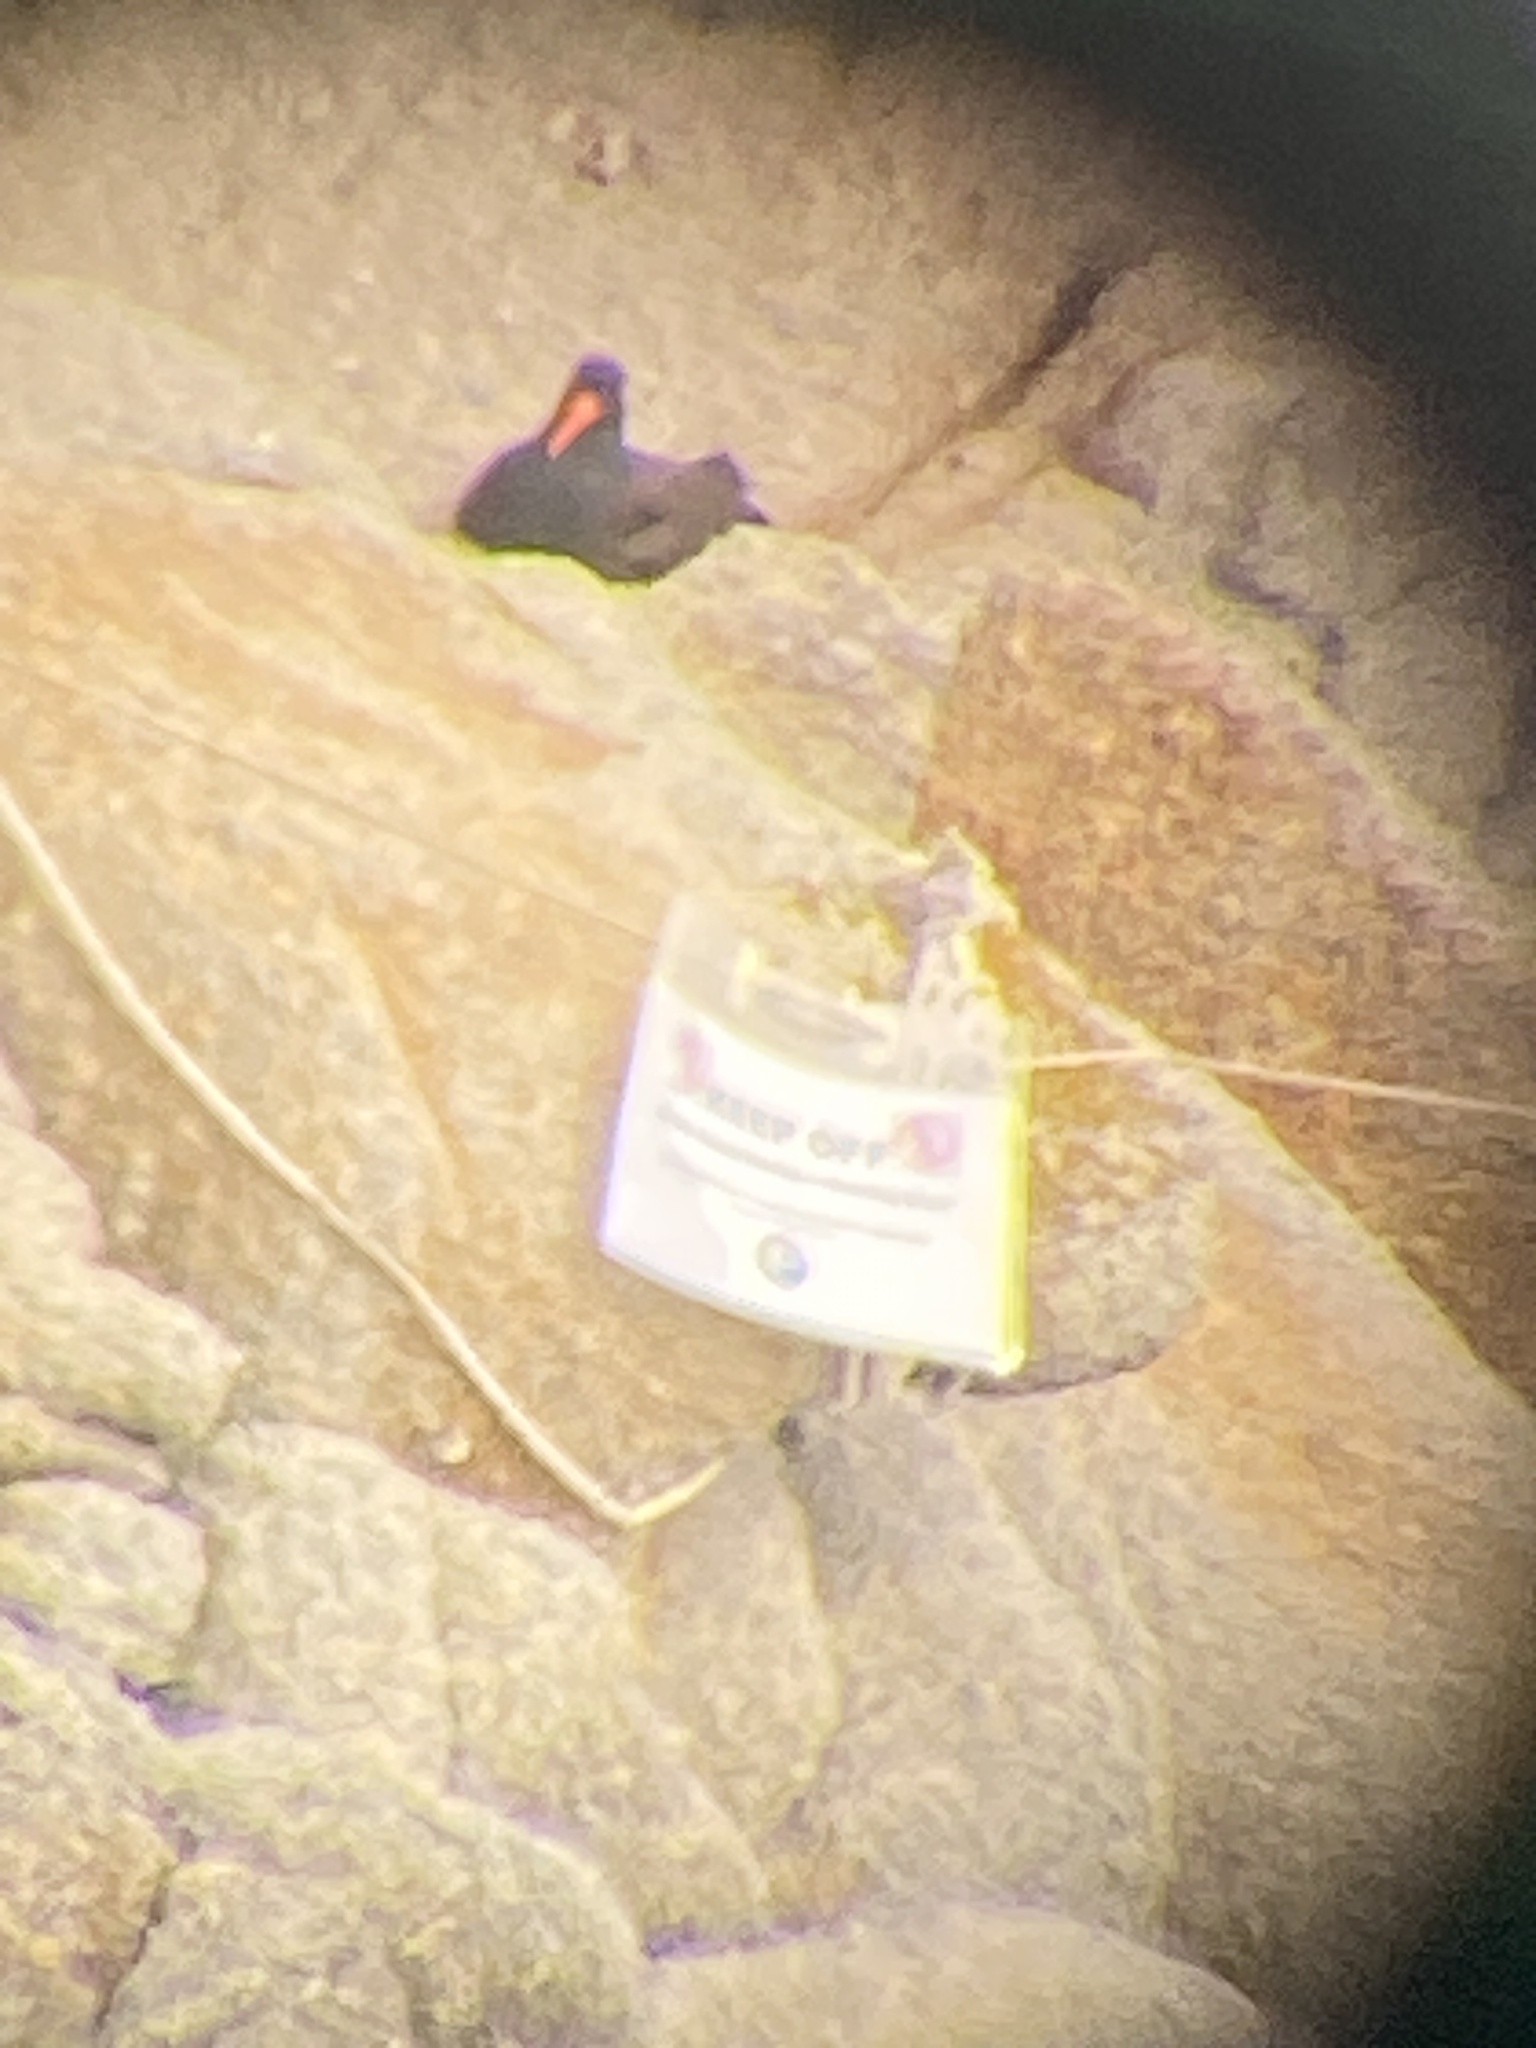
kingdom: Animalia
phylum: Chordata
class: Aves
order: Charadriiformes
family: Haematopodidae
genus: Haematopus
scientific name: Haematopus bachmani
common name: Black oystercatcher
